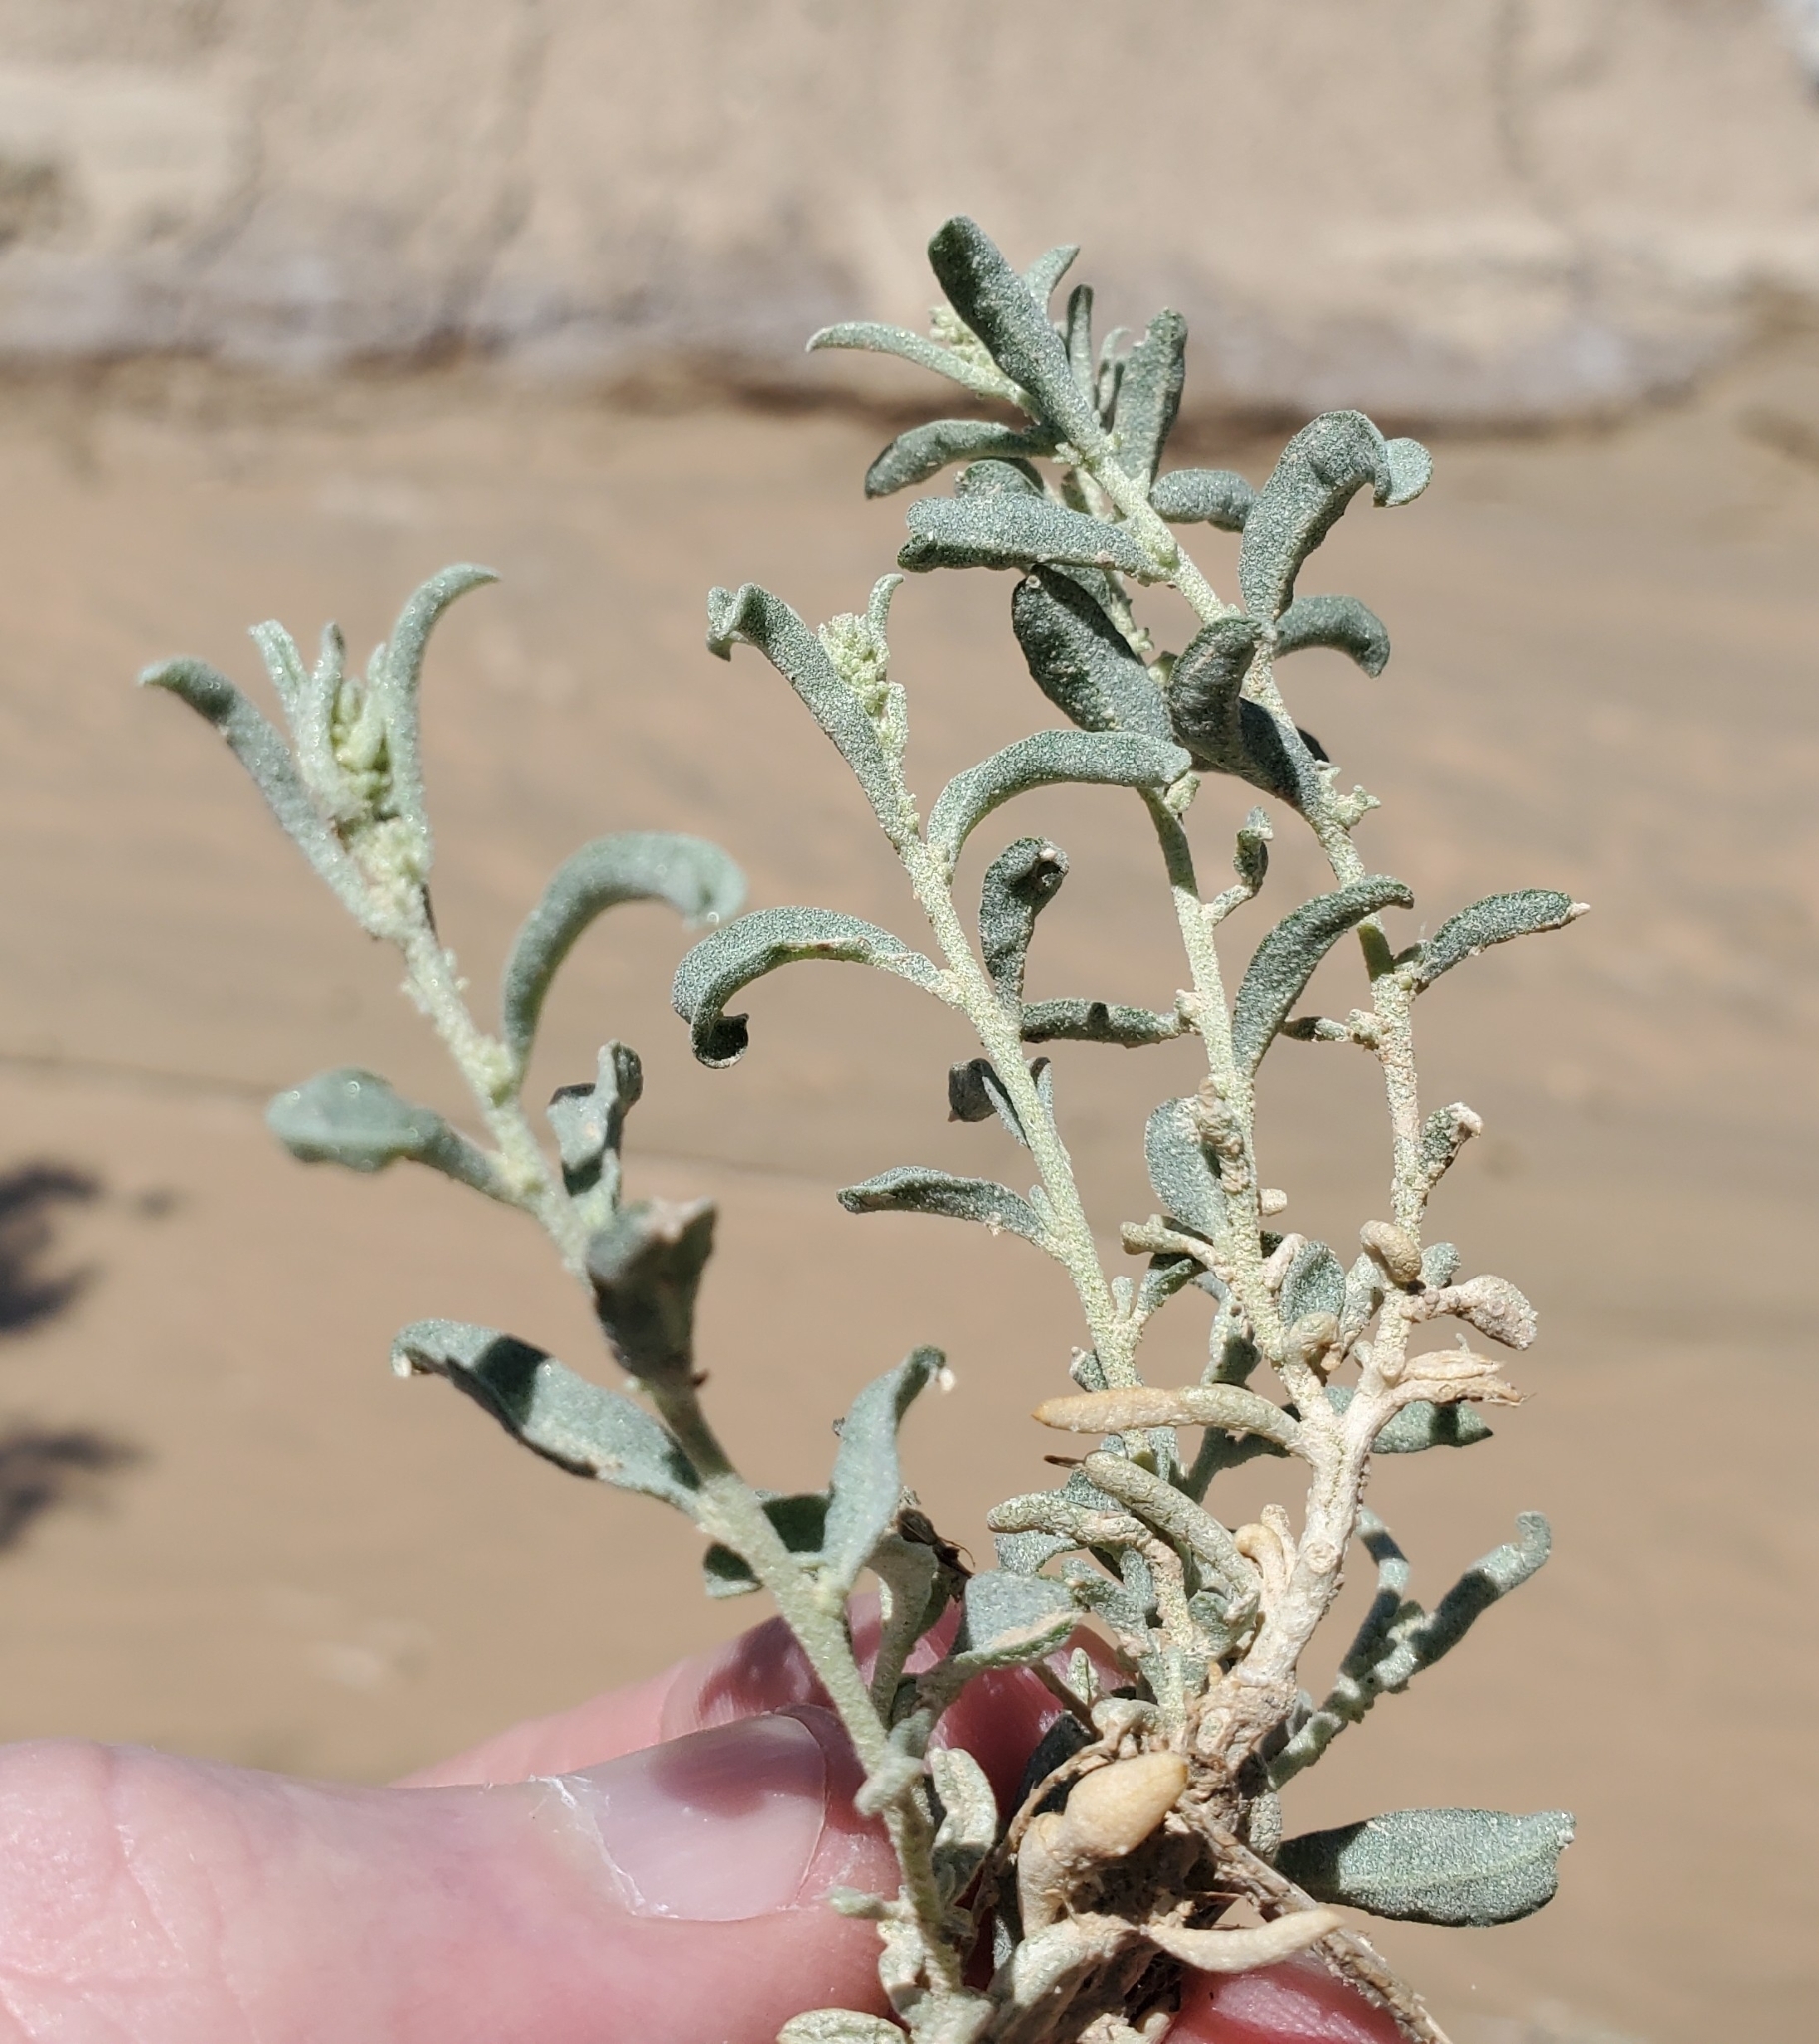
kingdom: Plantae
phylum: Tracheophyta
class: Magnoliopsida
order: Caryophyllales
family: Amaranthaceae
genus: Atriplex
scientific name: Atriplex canescens
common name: Four-wing saltbush
